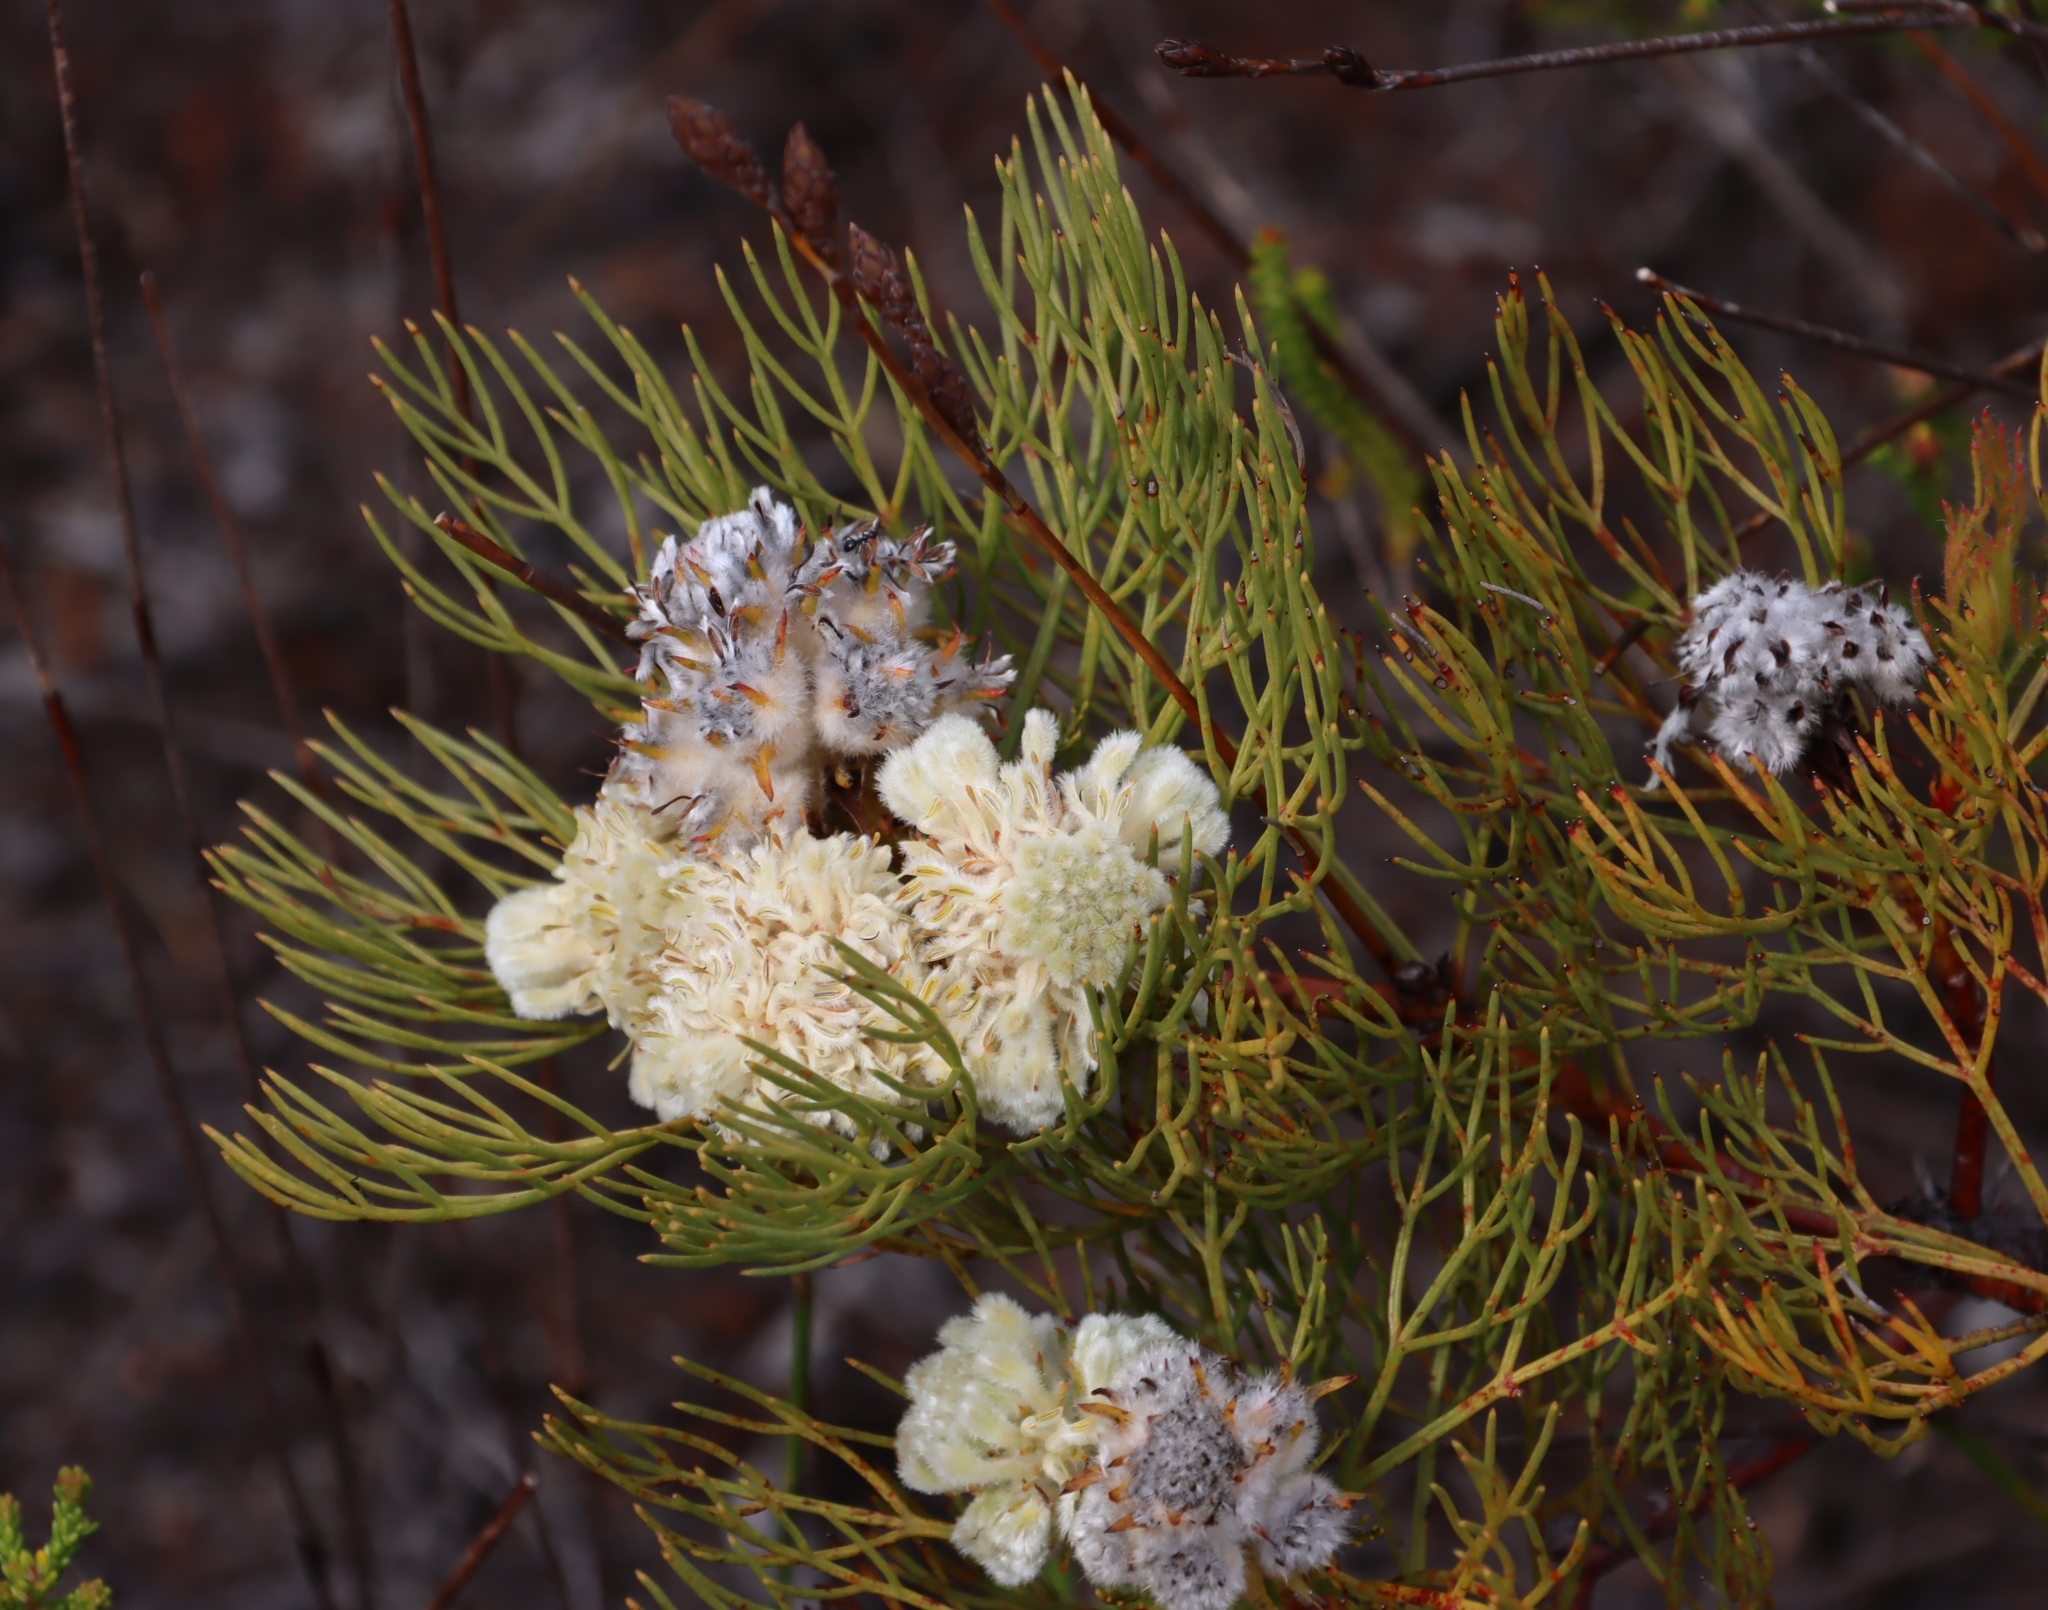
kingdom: Plantae
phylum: Tracheophyta
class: Magnoliopsida
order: Proteales
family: Proteaceae
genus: Serruria
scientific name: Serruria glomerata
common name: Cluster spiderhead
